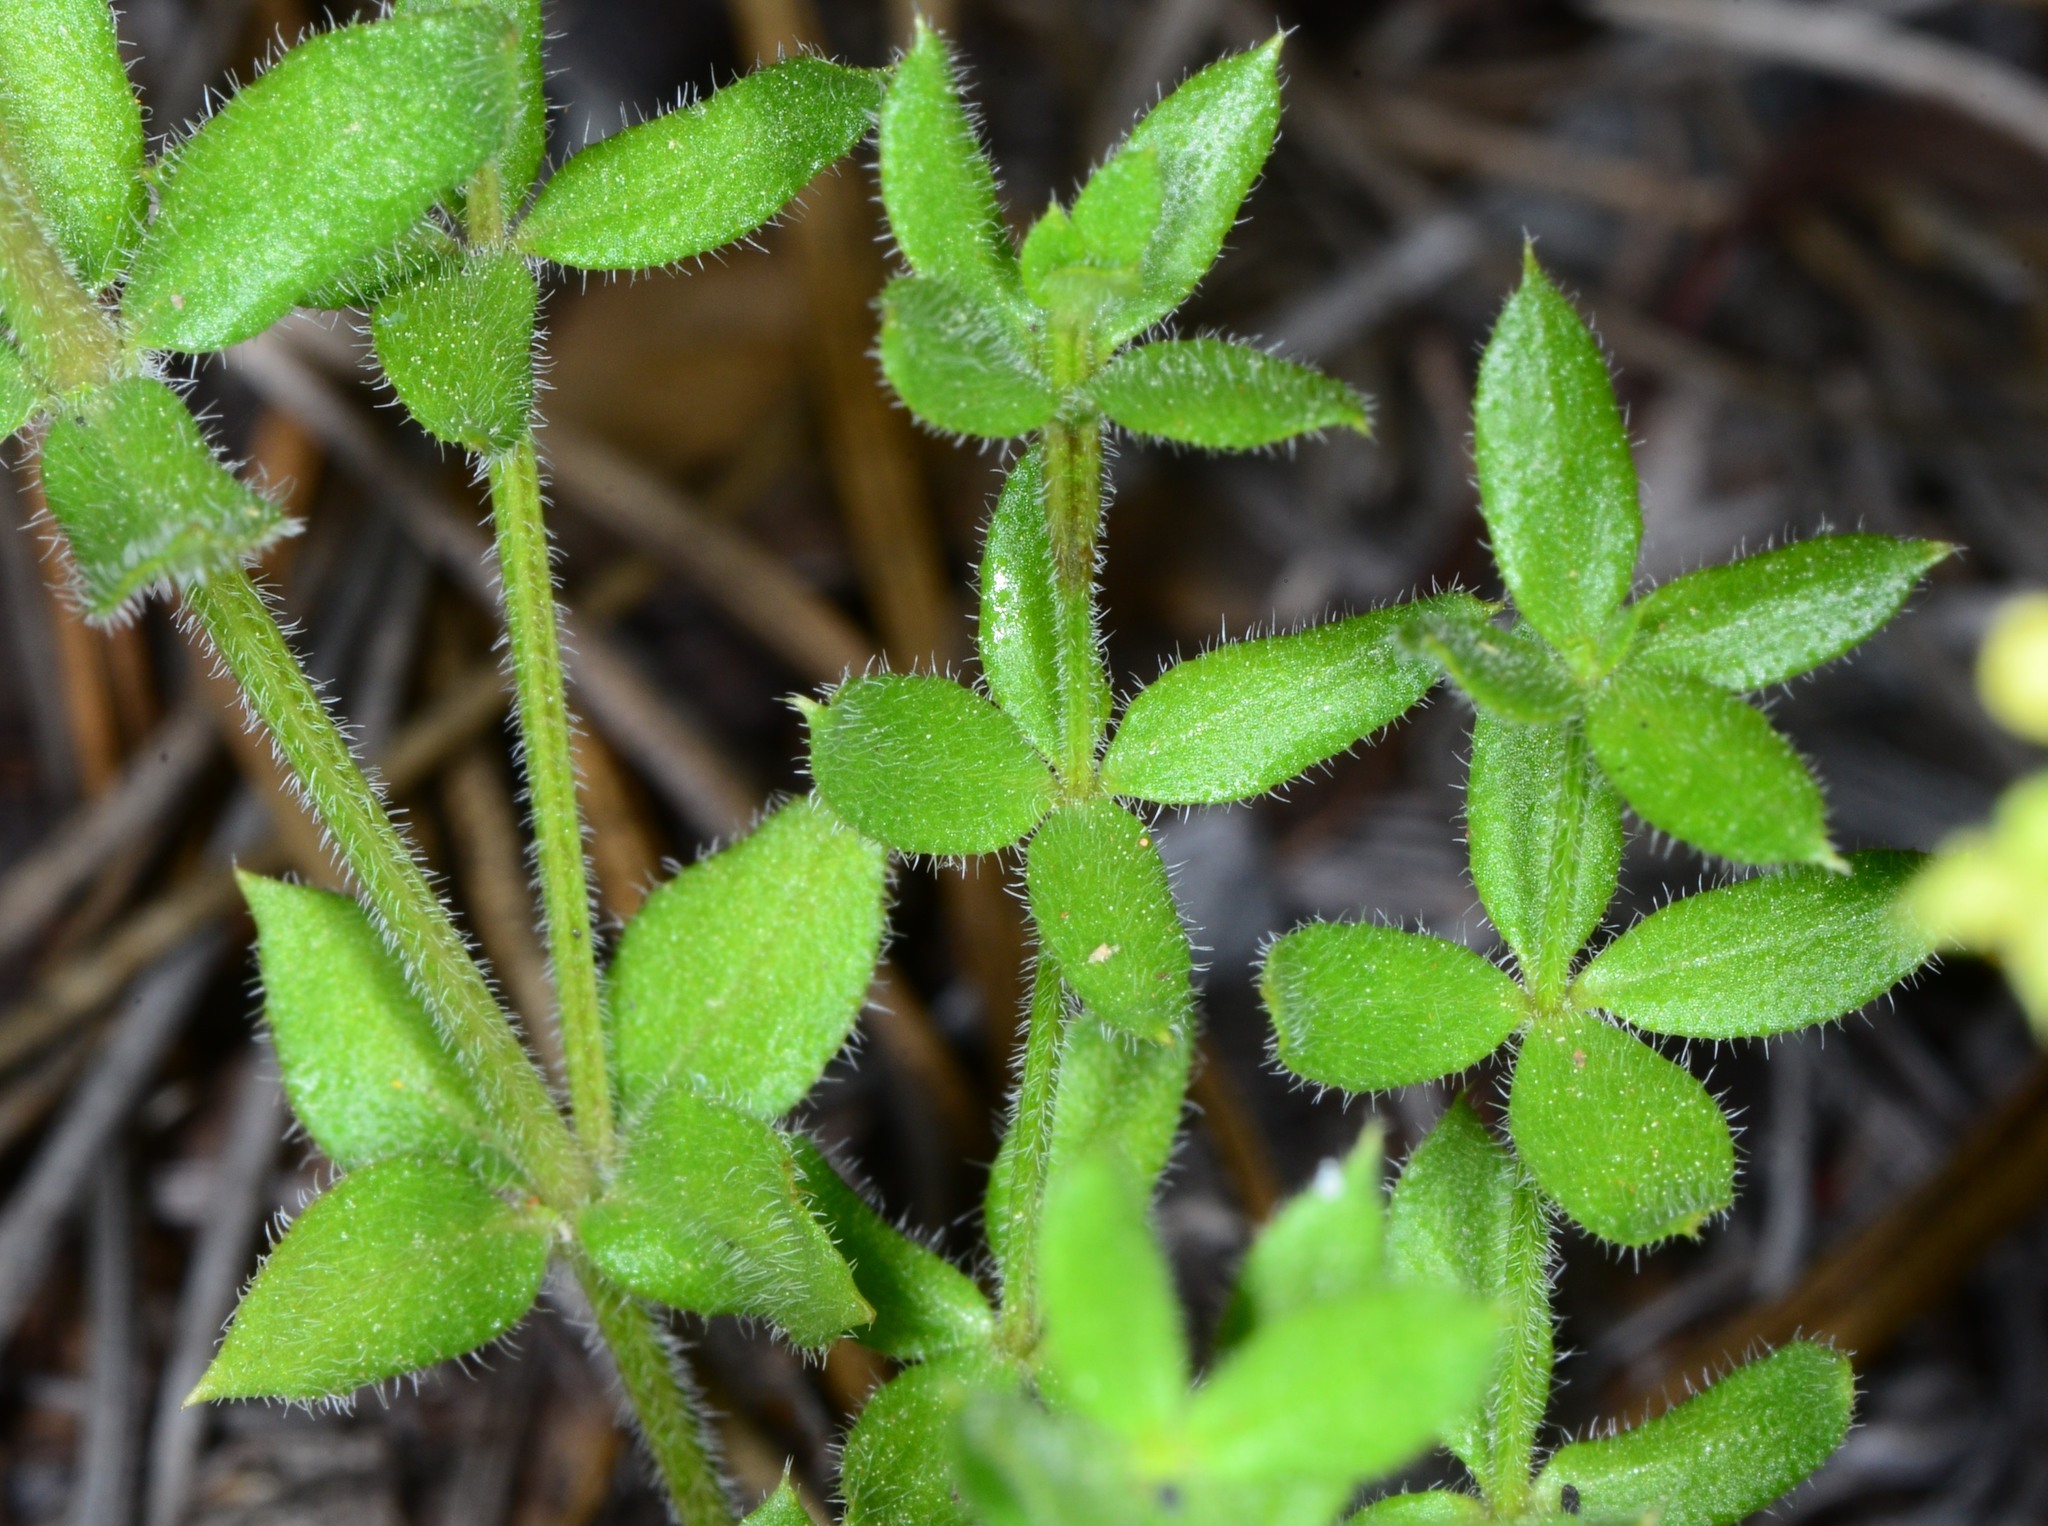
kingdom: Plantae
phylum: Tracheophyta
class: Magnoliopsida
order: Gentianales
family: Rubiaceae
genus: Galium
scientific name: Galium californicum
